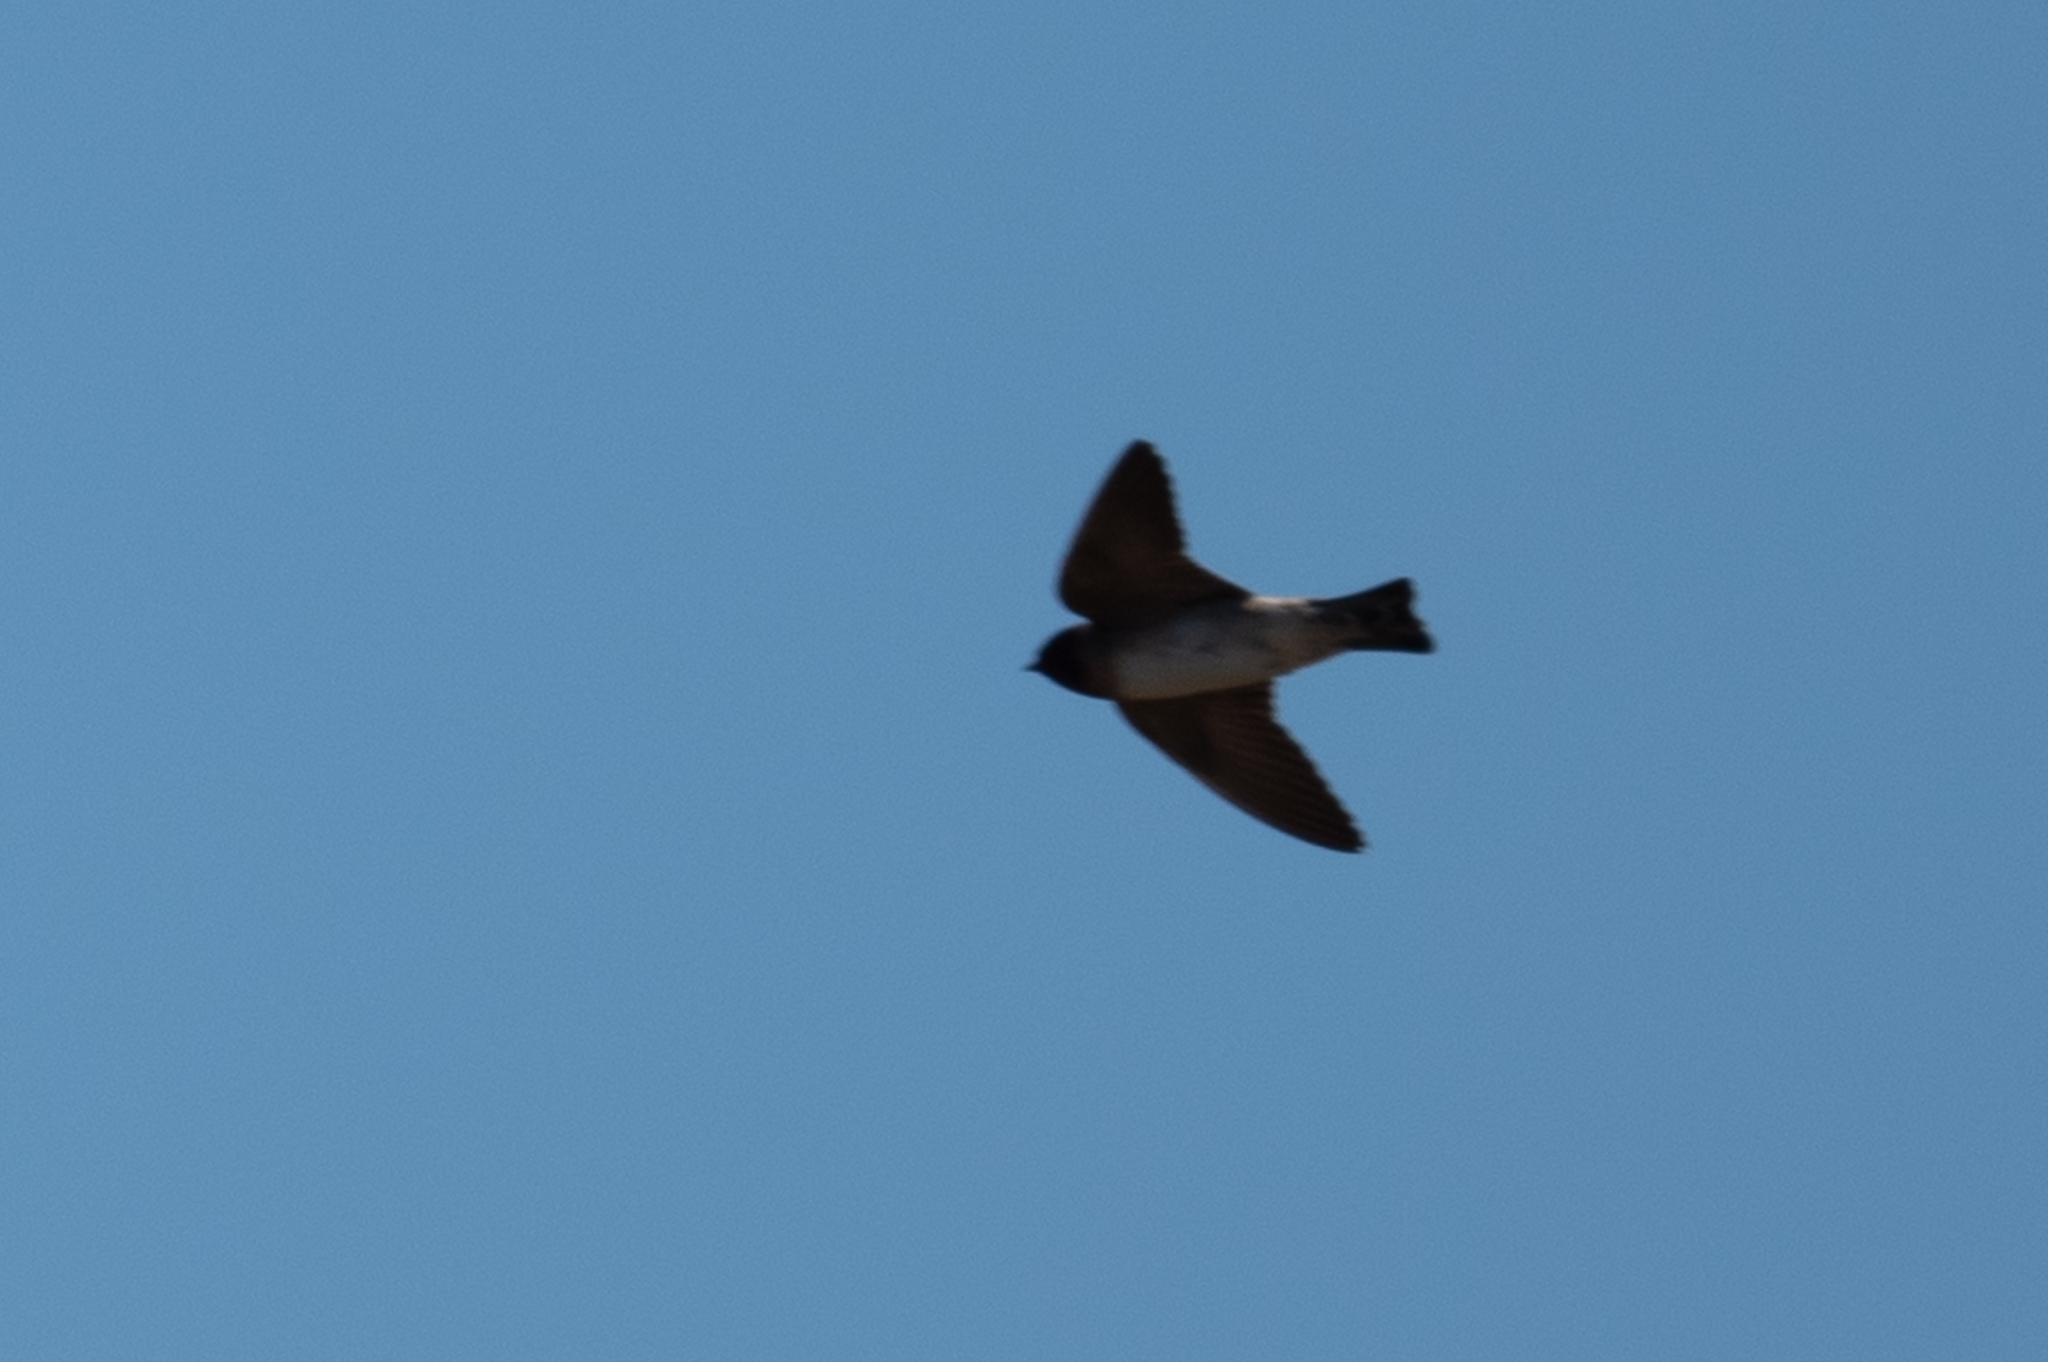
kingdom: Animalia
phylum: Chordata
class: Aves
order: Passeriformes
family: Hirundinidae
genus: Petrochelidon
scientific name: Petrochelidon pyrrhonota
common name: American cliff swallow
